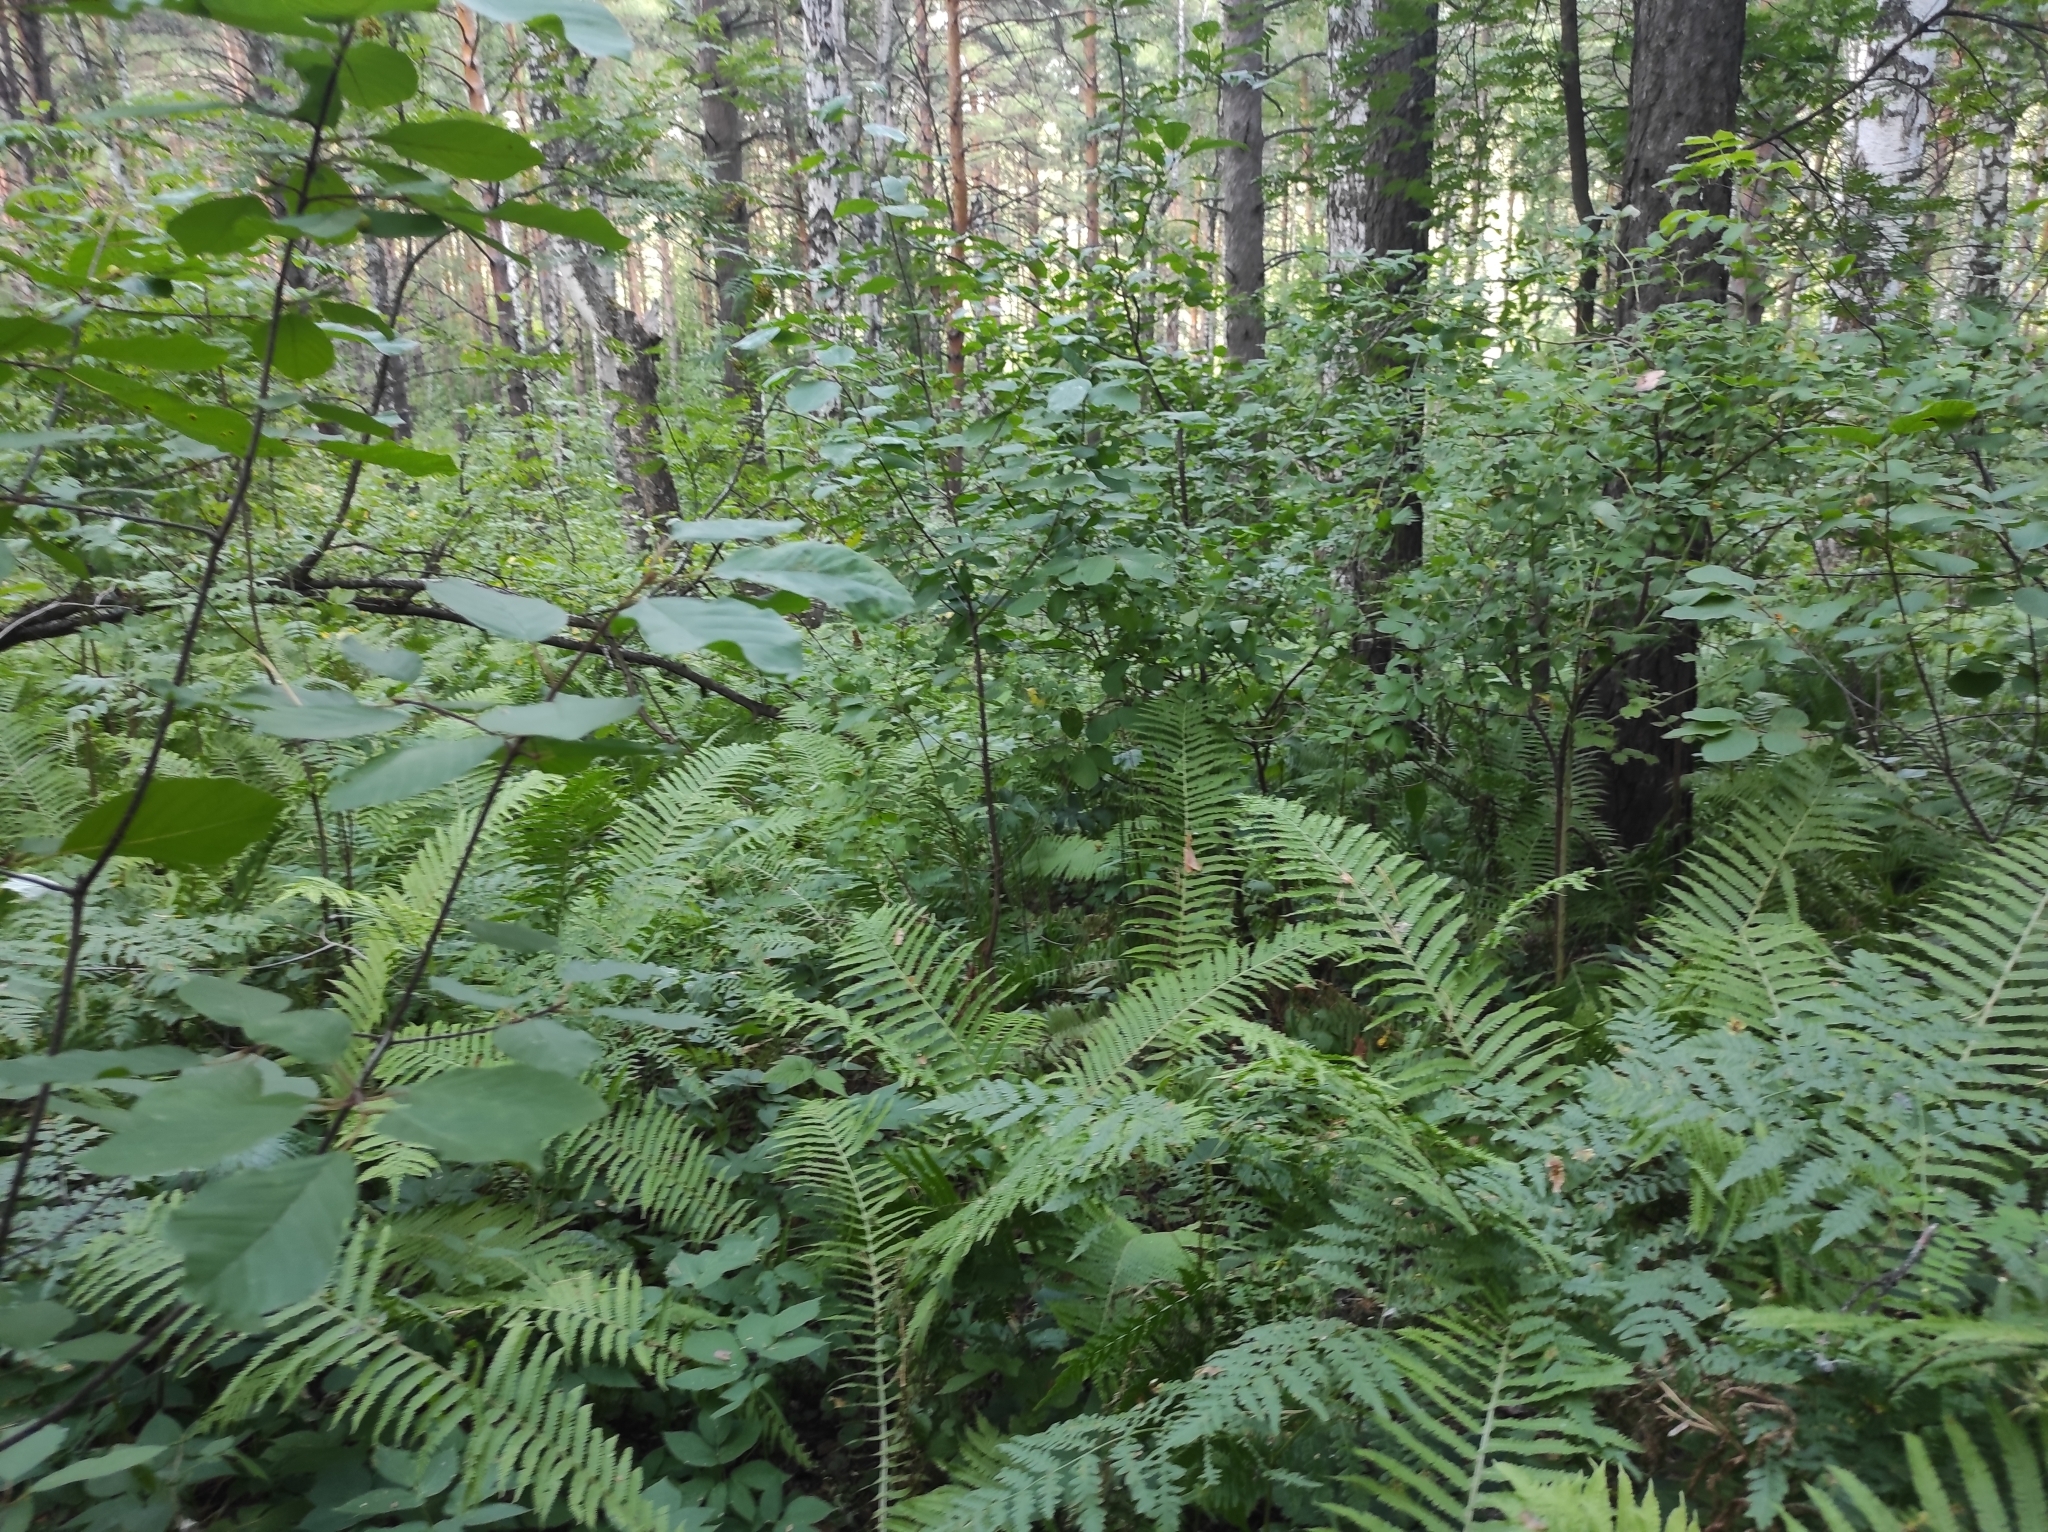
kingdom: Plantae
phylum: Tracheophyta
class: Polypodiopsida
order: Polypodiales
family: Onocleaceae
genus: Matteuccia
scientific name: Matteuccia struthiopteris
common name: Ostrich fern
